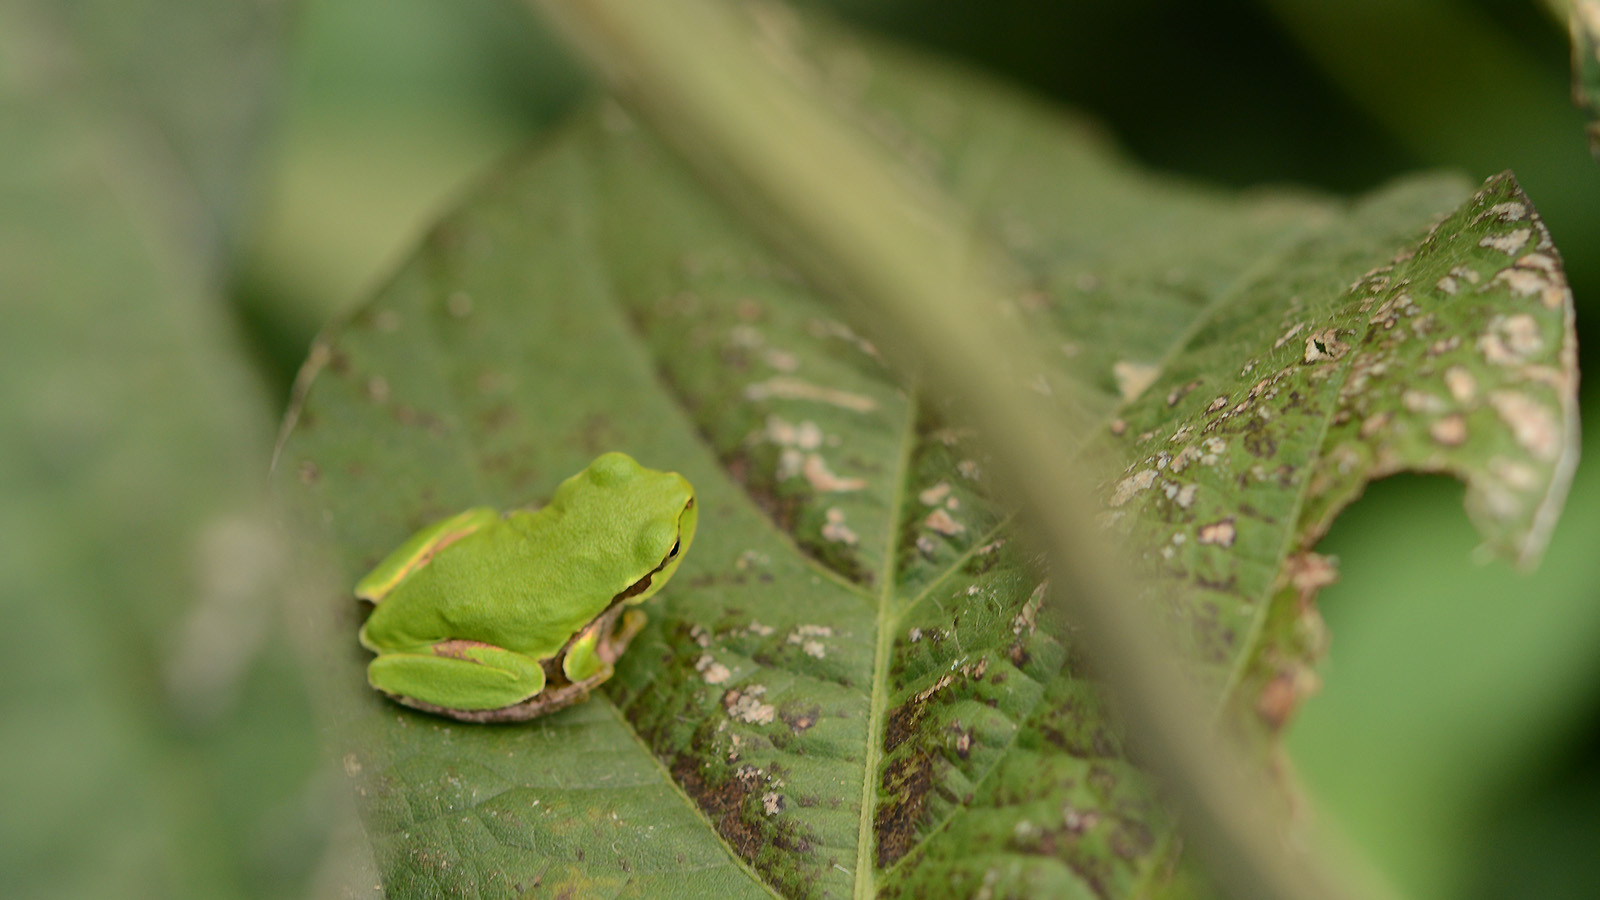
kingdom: Animalia
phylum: Chordata
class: Amphibia
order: Anura
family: Hylidae
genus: Dryophytes
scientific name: Dryophytes japonicus
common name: Japanese treefrog
